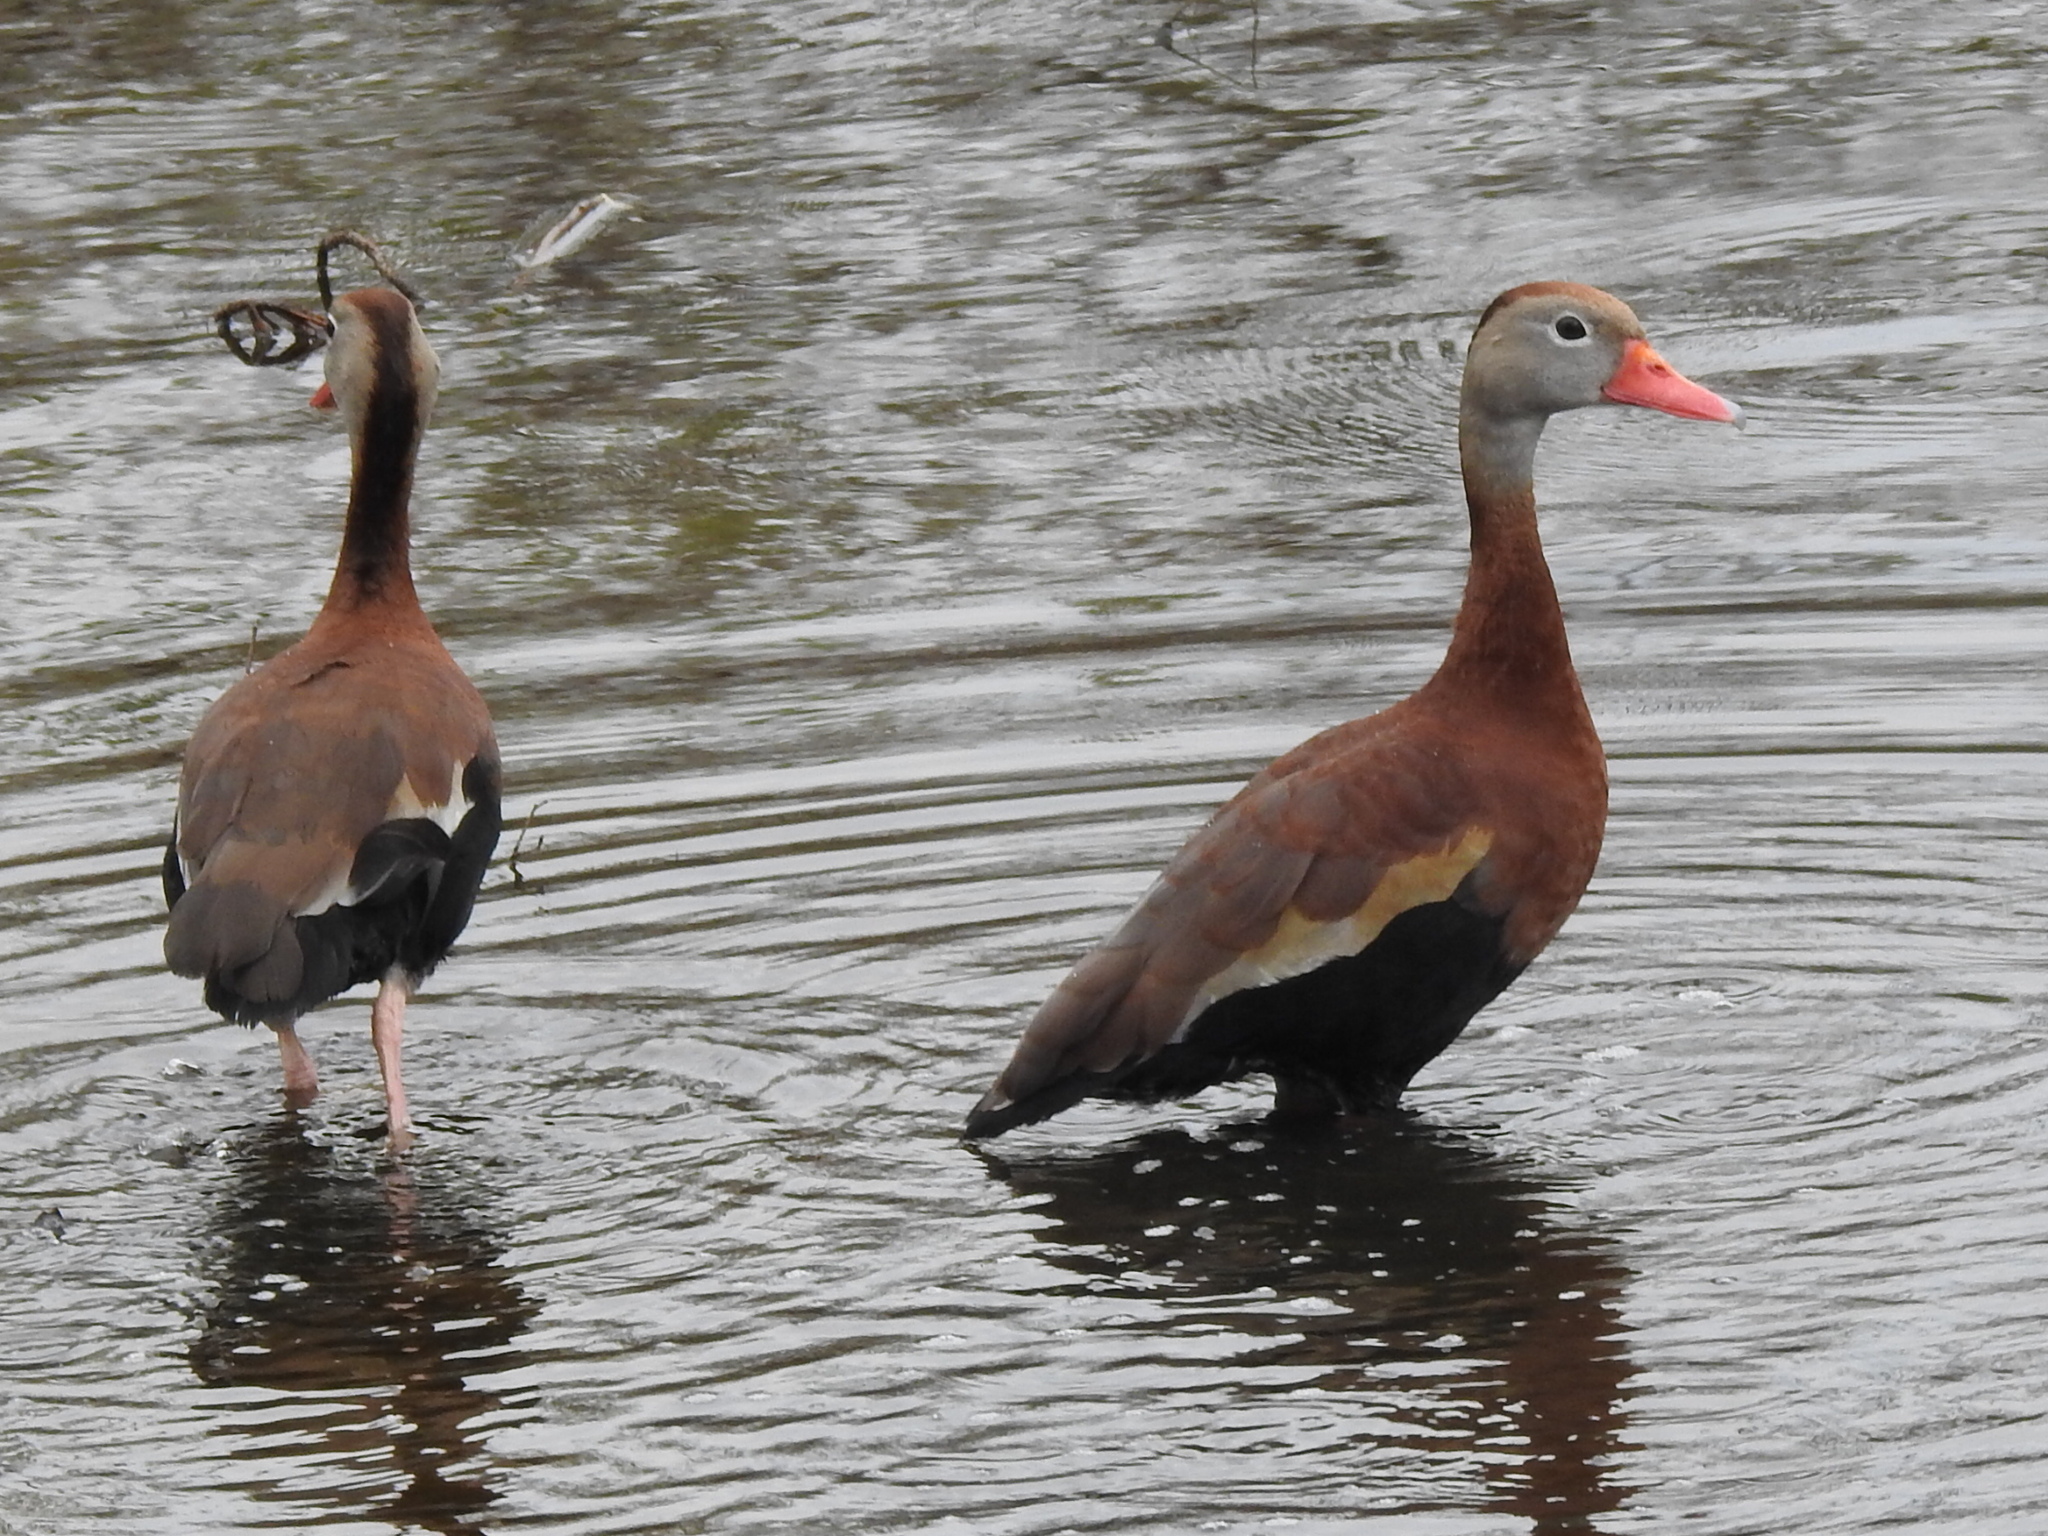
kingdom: Animalia
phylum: Chordata
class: Aves
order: Anseriformes
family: Anatidae
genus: Dendrocygna
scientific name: Dendrocygna autumnalis
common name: Black-bellied whistling duck
